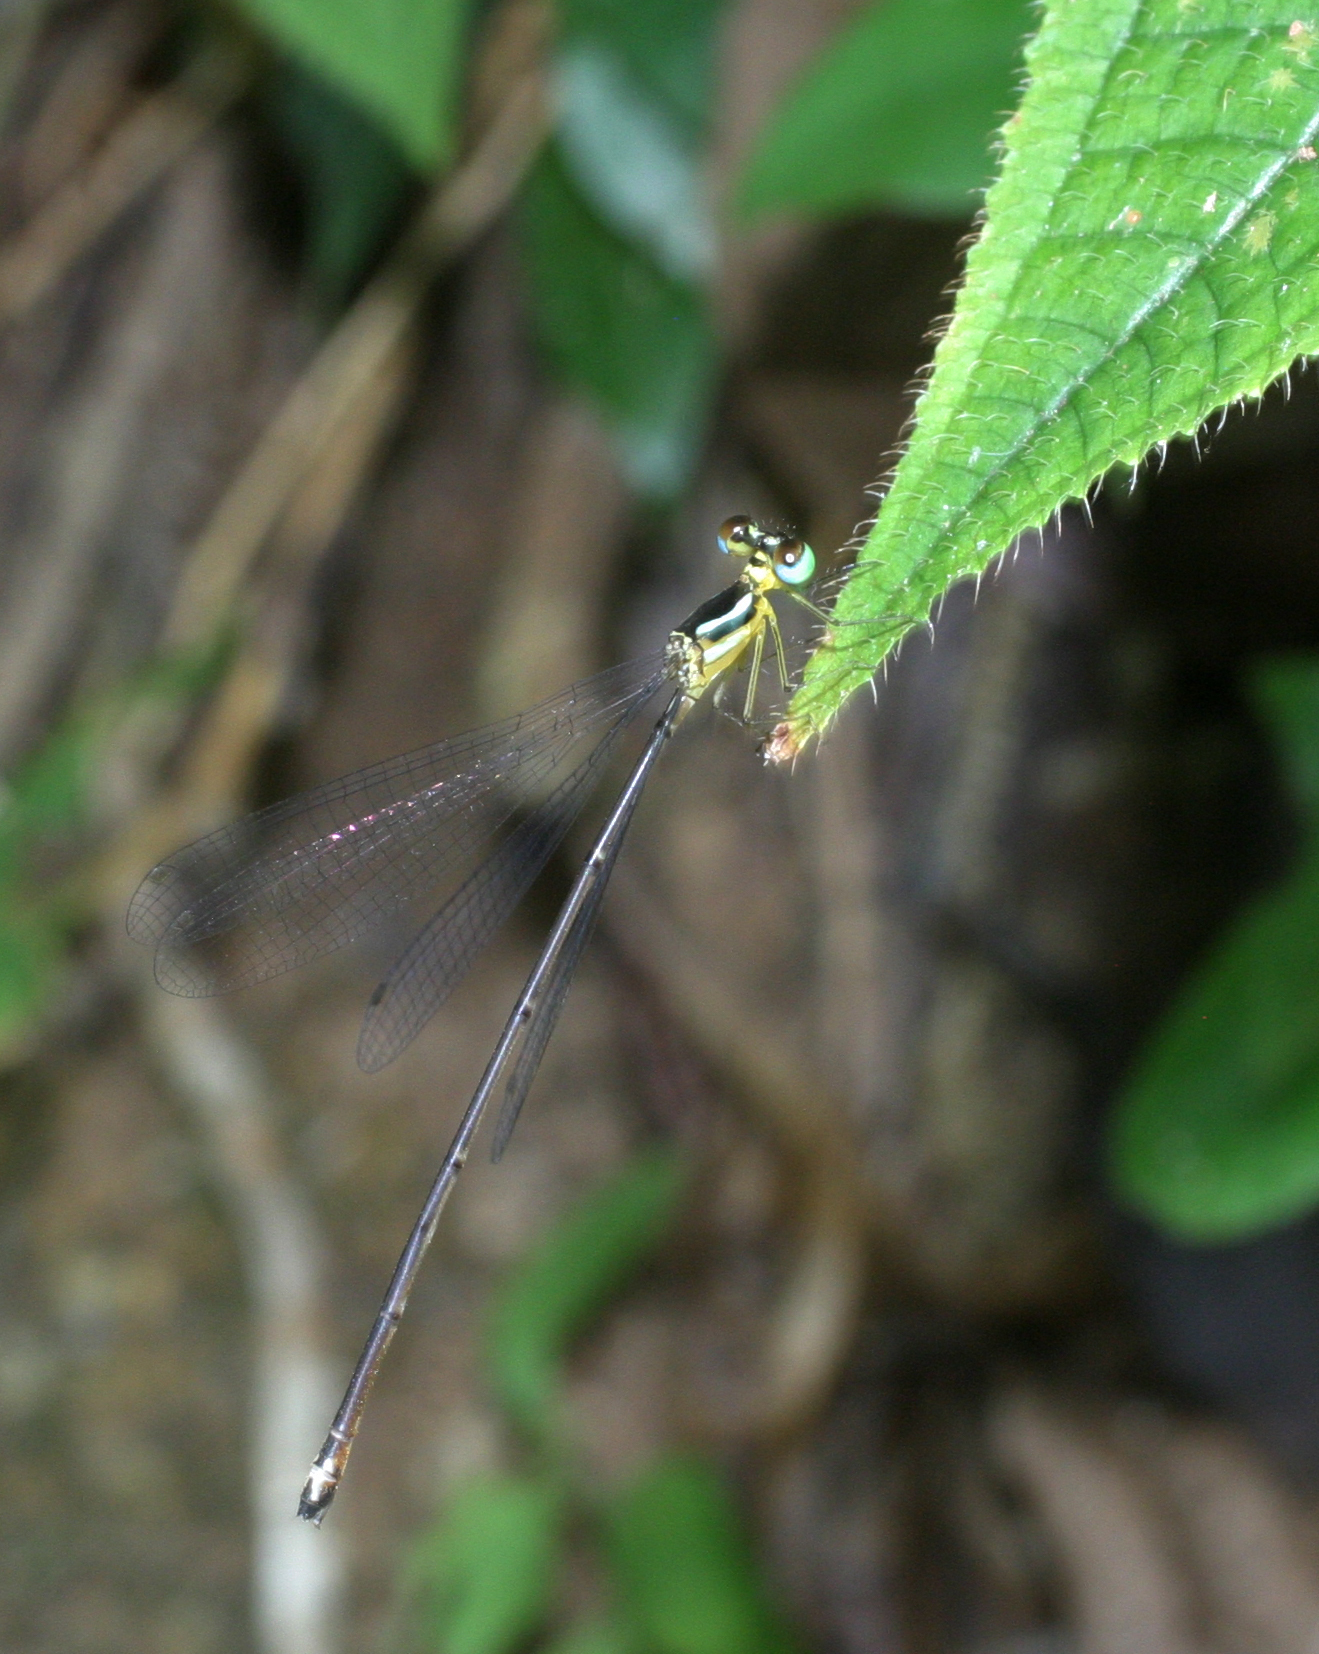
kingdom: Animalia
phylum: Arthropoda
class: Insecta
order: Odonata
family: Platycnemididae
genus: Coeliccia
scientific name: Coeliccia albicauda
